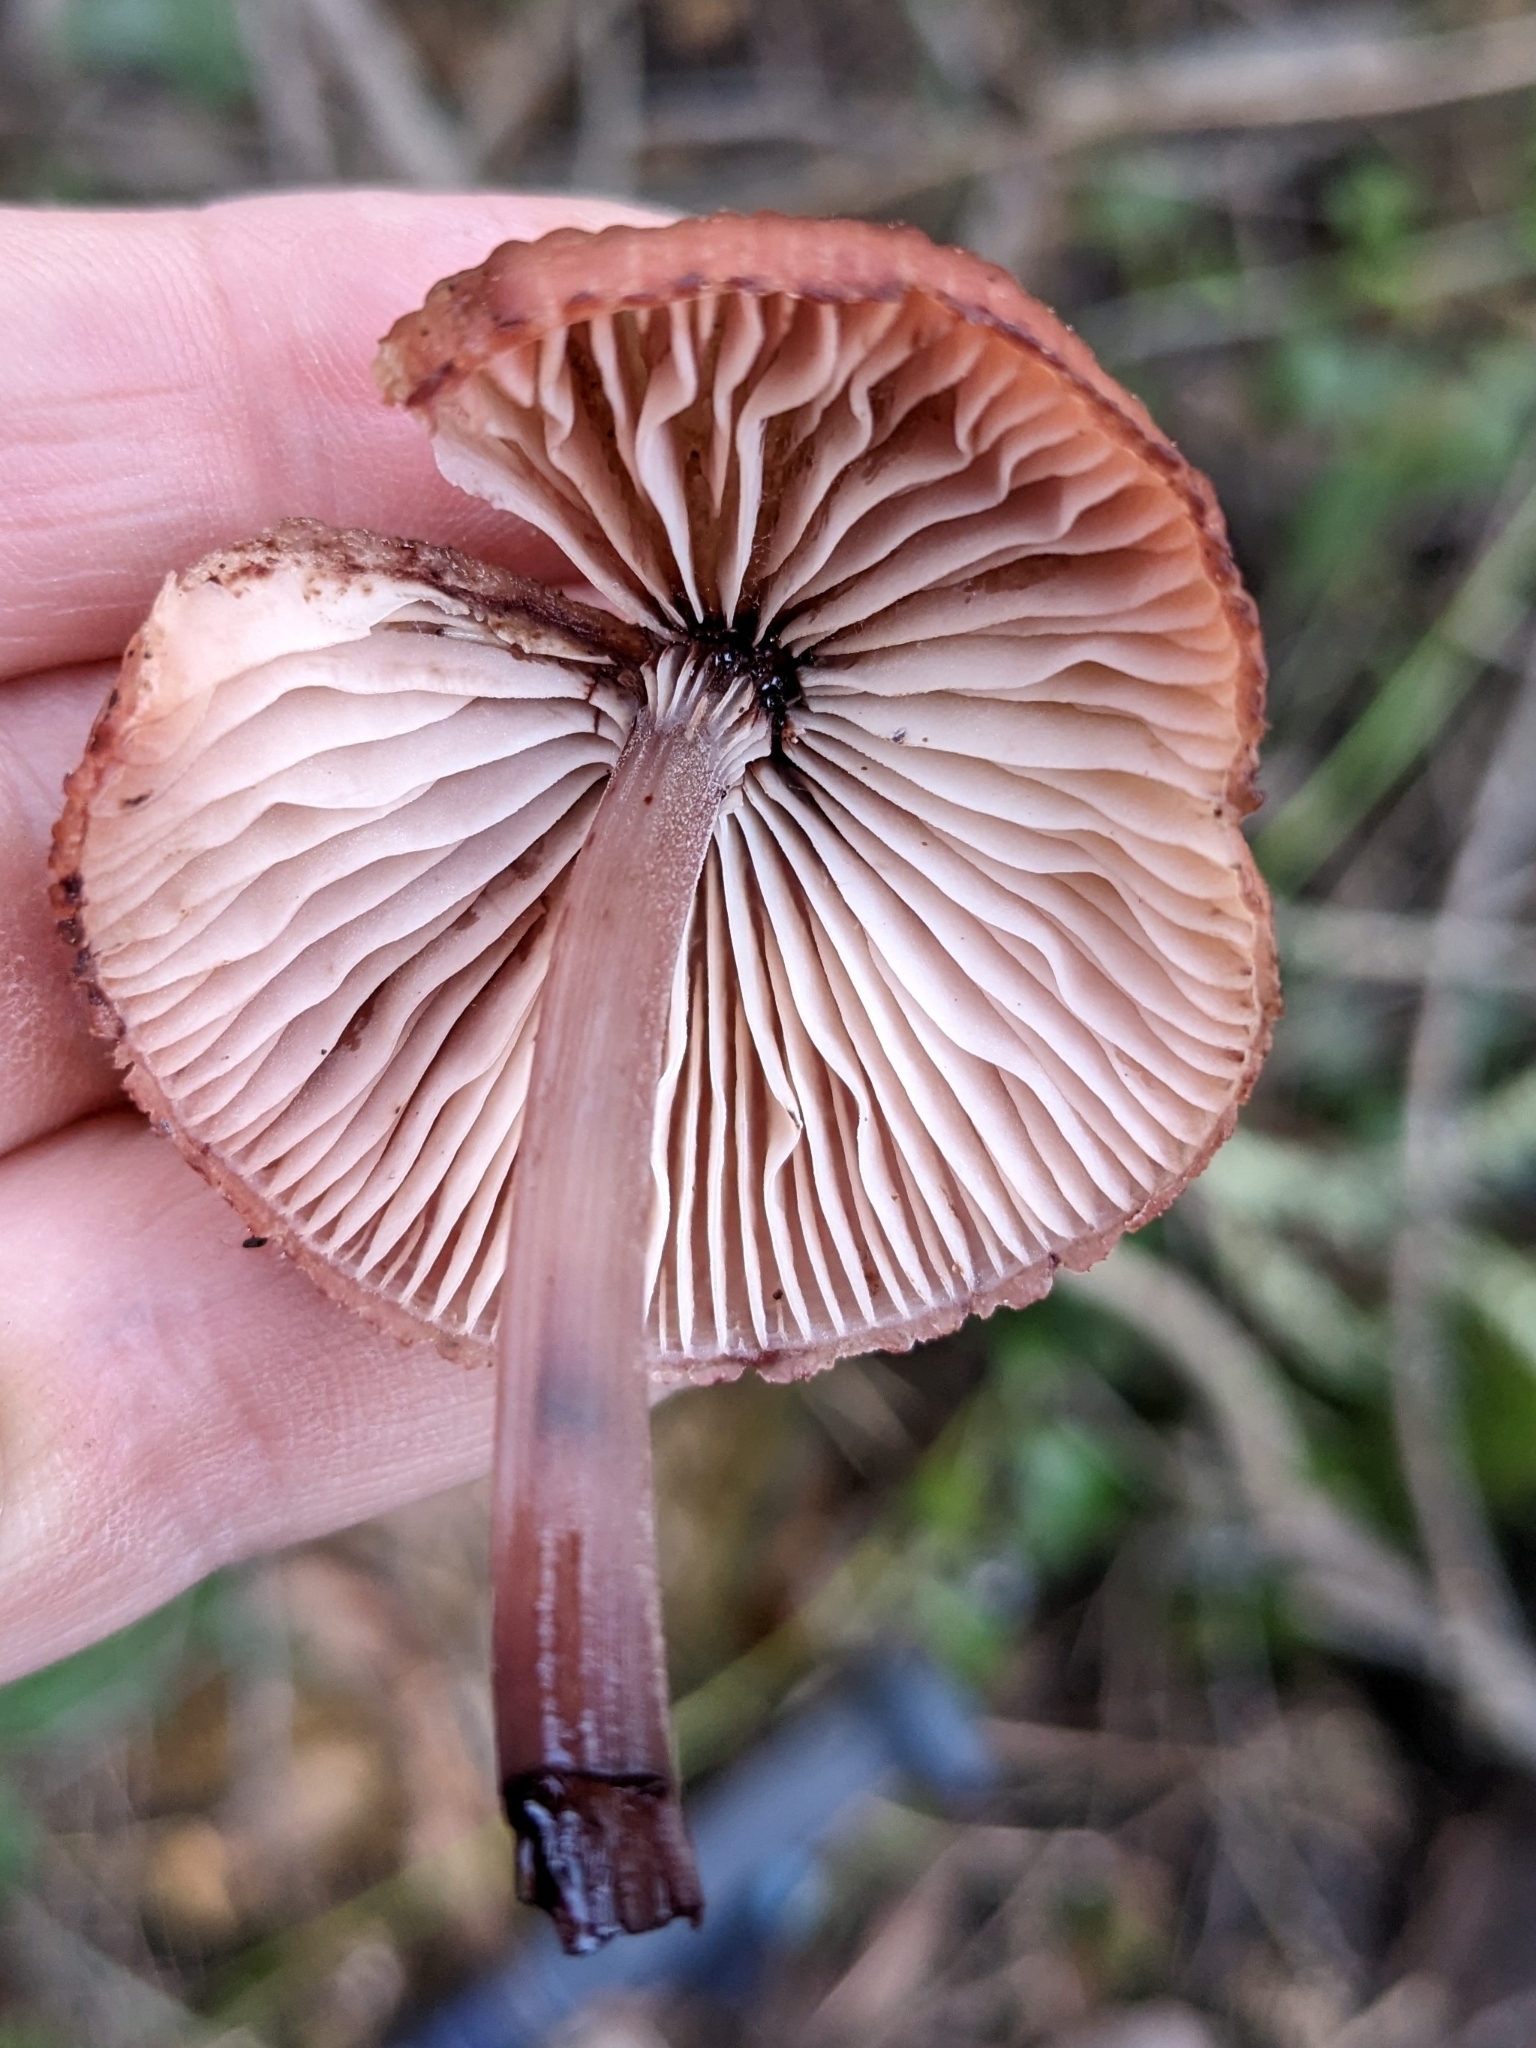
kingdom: Fungi
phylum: Basidiomycota
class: Agaricomycetes
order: Agaricales
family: Mycenaceae
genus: Mycena
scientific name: Mycena haematopus
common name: Burgundydrop bonnet
